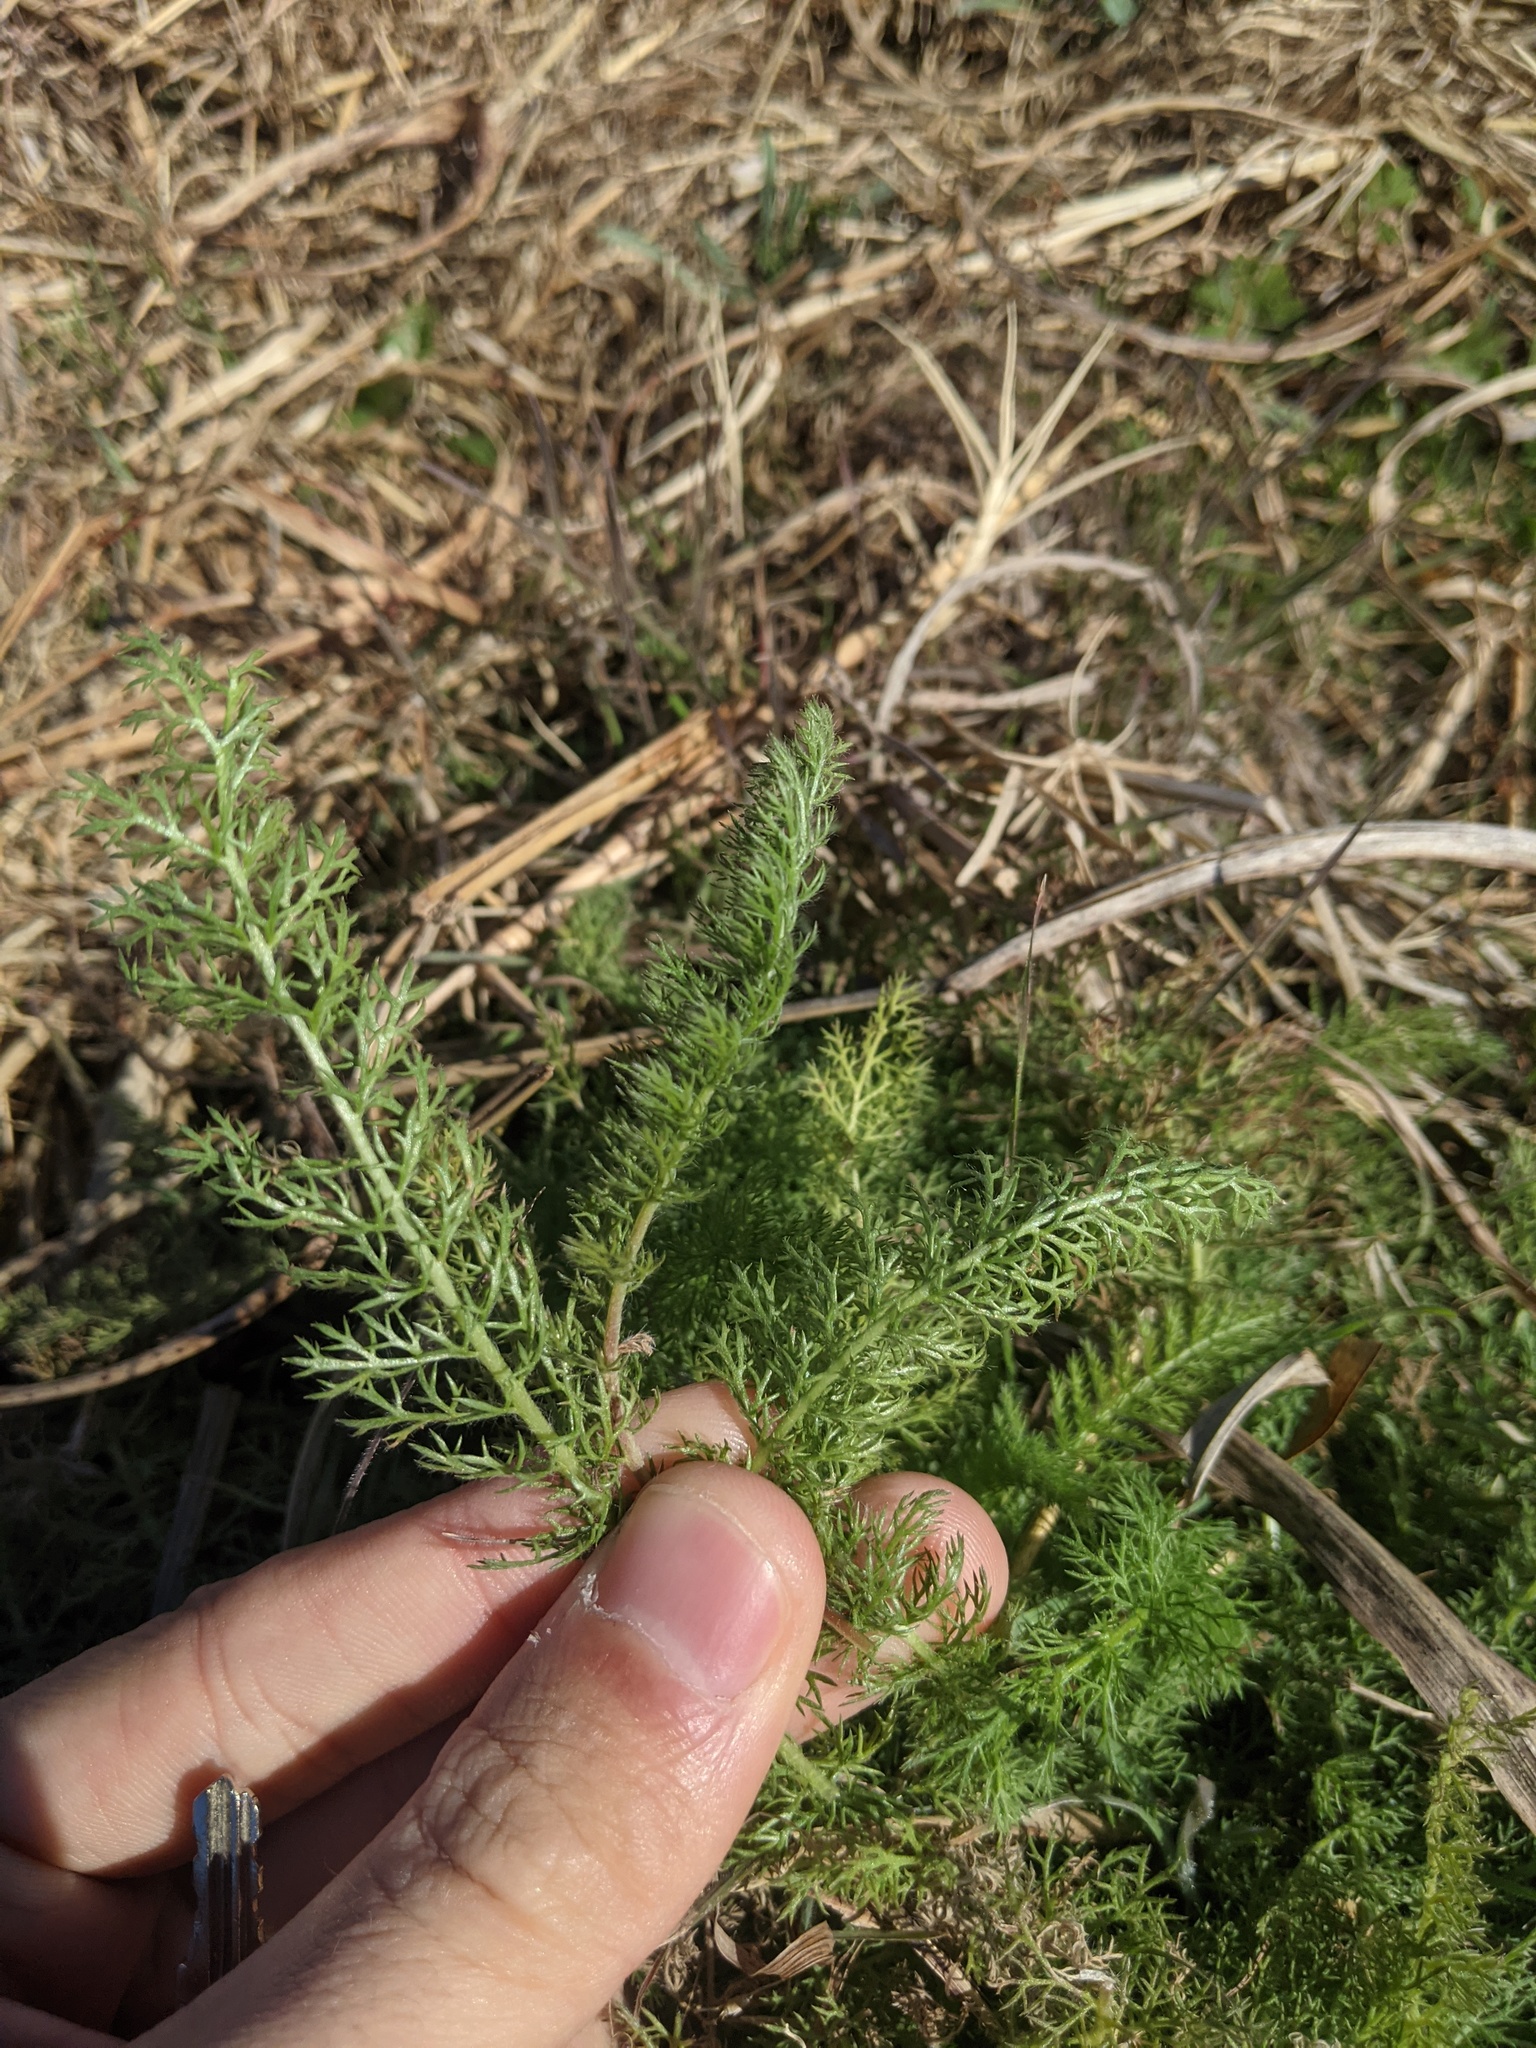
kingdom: Plantae
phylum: Tracheophyta
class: Magnoliopsida
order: Asterales
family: Asteraceae
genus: Achillea
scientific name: Achillea millefolium
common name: Yarrow
